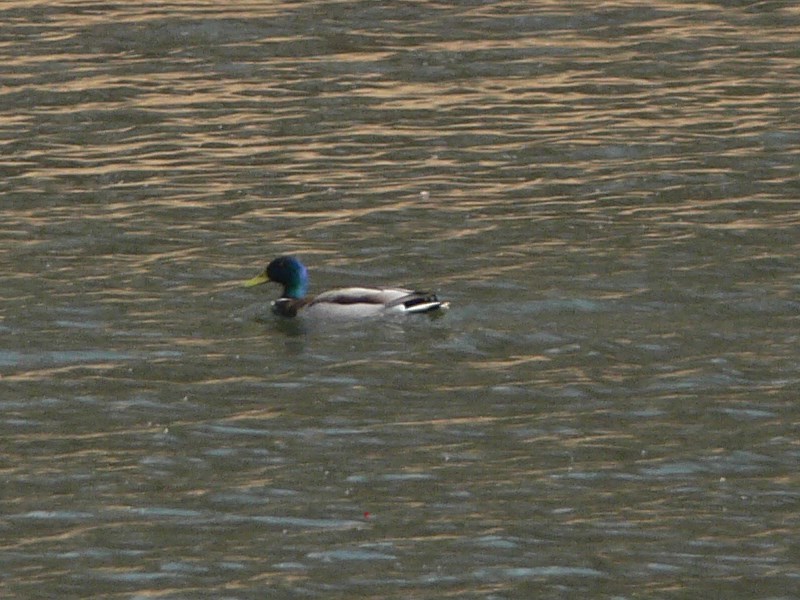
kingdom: Animalia
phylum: Chordata
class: Aves
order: Anseriformes
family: Anatidae
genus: Anas
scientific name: Anas platyrhynchos
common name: Mallard
